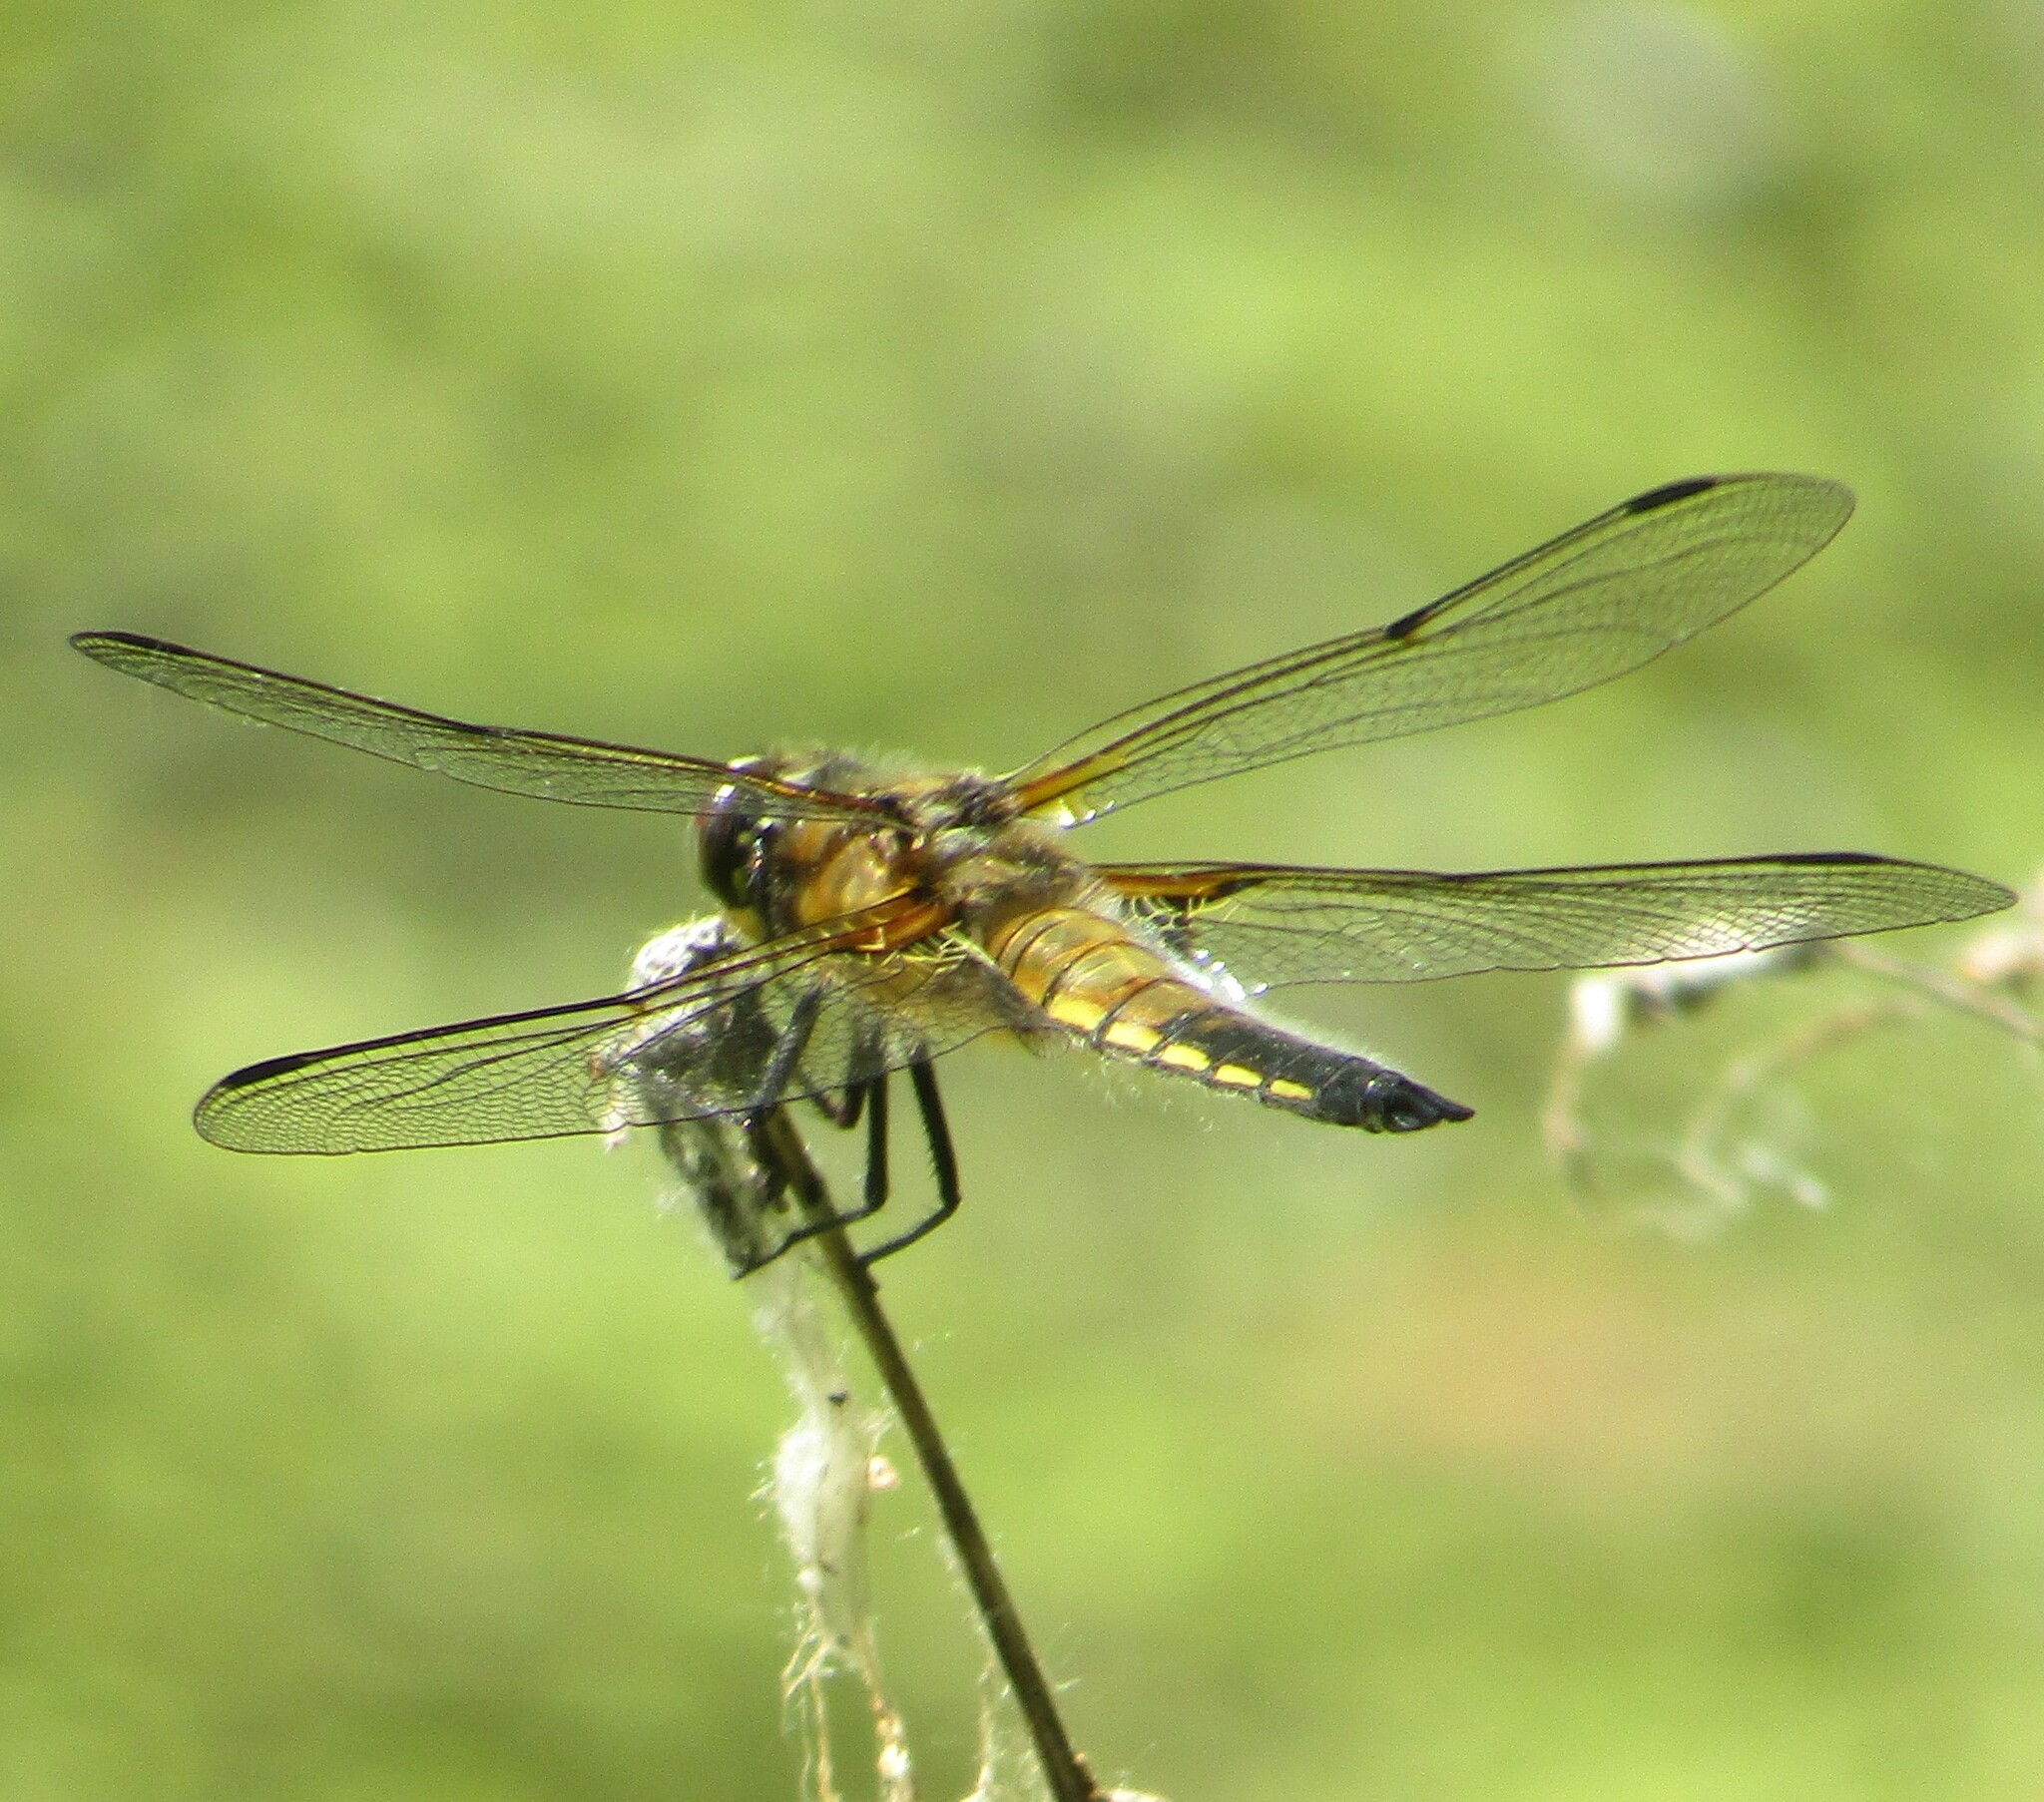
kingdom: Animalia
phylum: Arthropoda
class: Insecta
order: Odonata
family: Libellulidae
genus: Libellula
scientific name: Libellula quadrimaculata
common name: Four-spotted chaser
